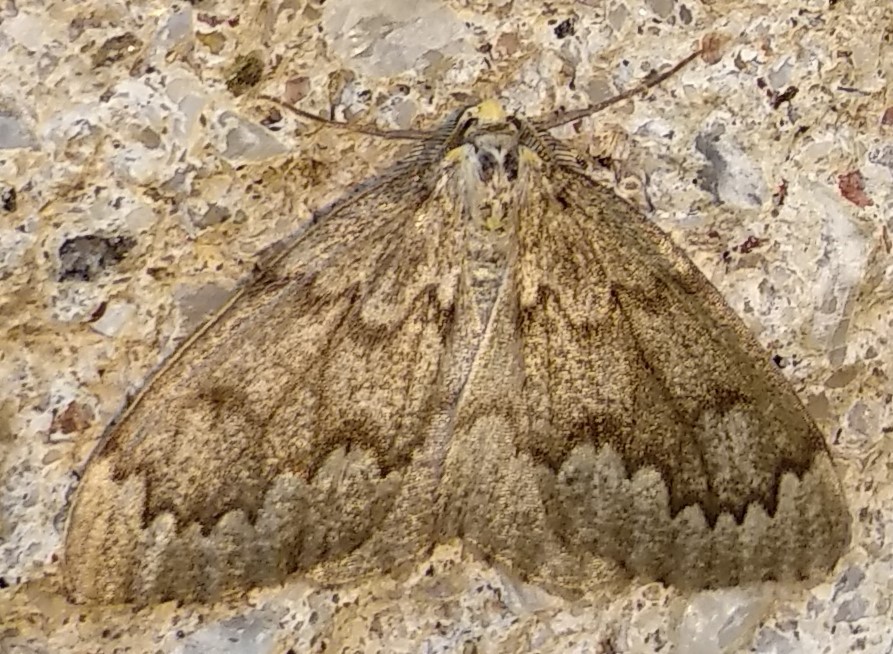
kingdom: Animalia
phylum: Arthropoda
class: Insecta
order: Lepidoptera
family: Geometridae
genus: Nepytia
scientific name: Nepytia canosaria
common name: False hemlock looper
